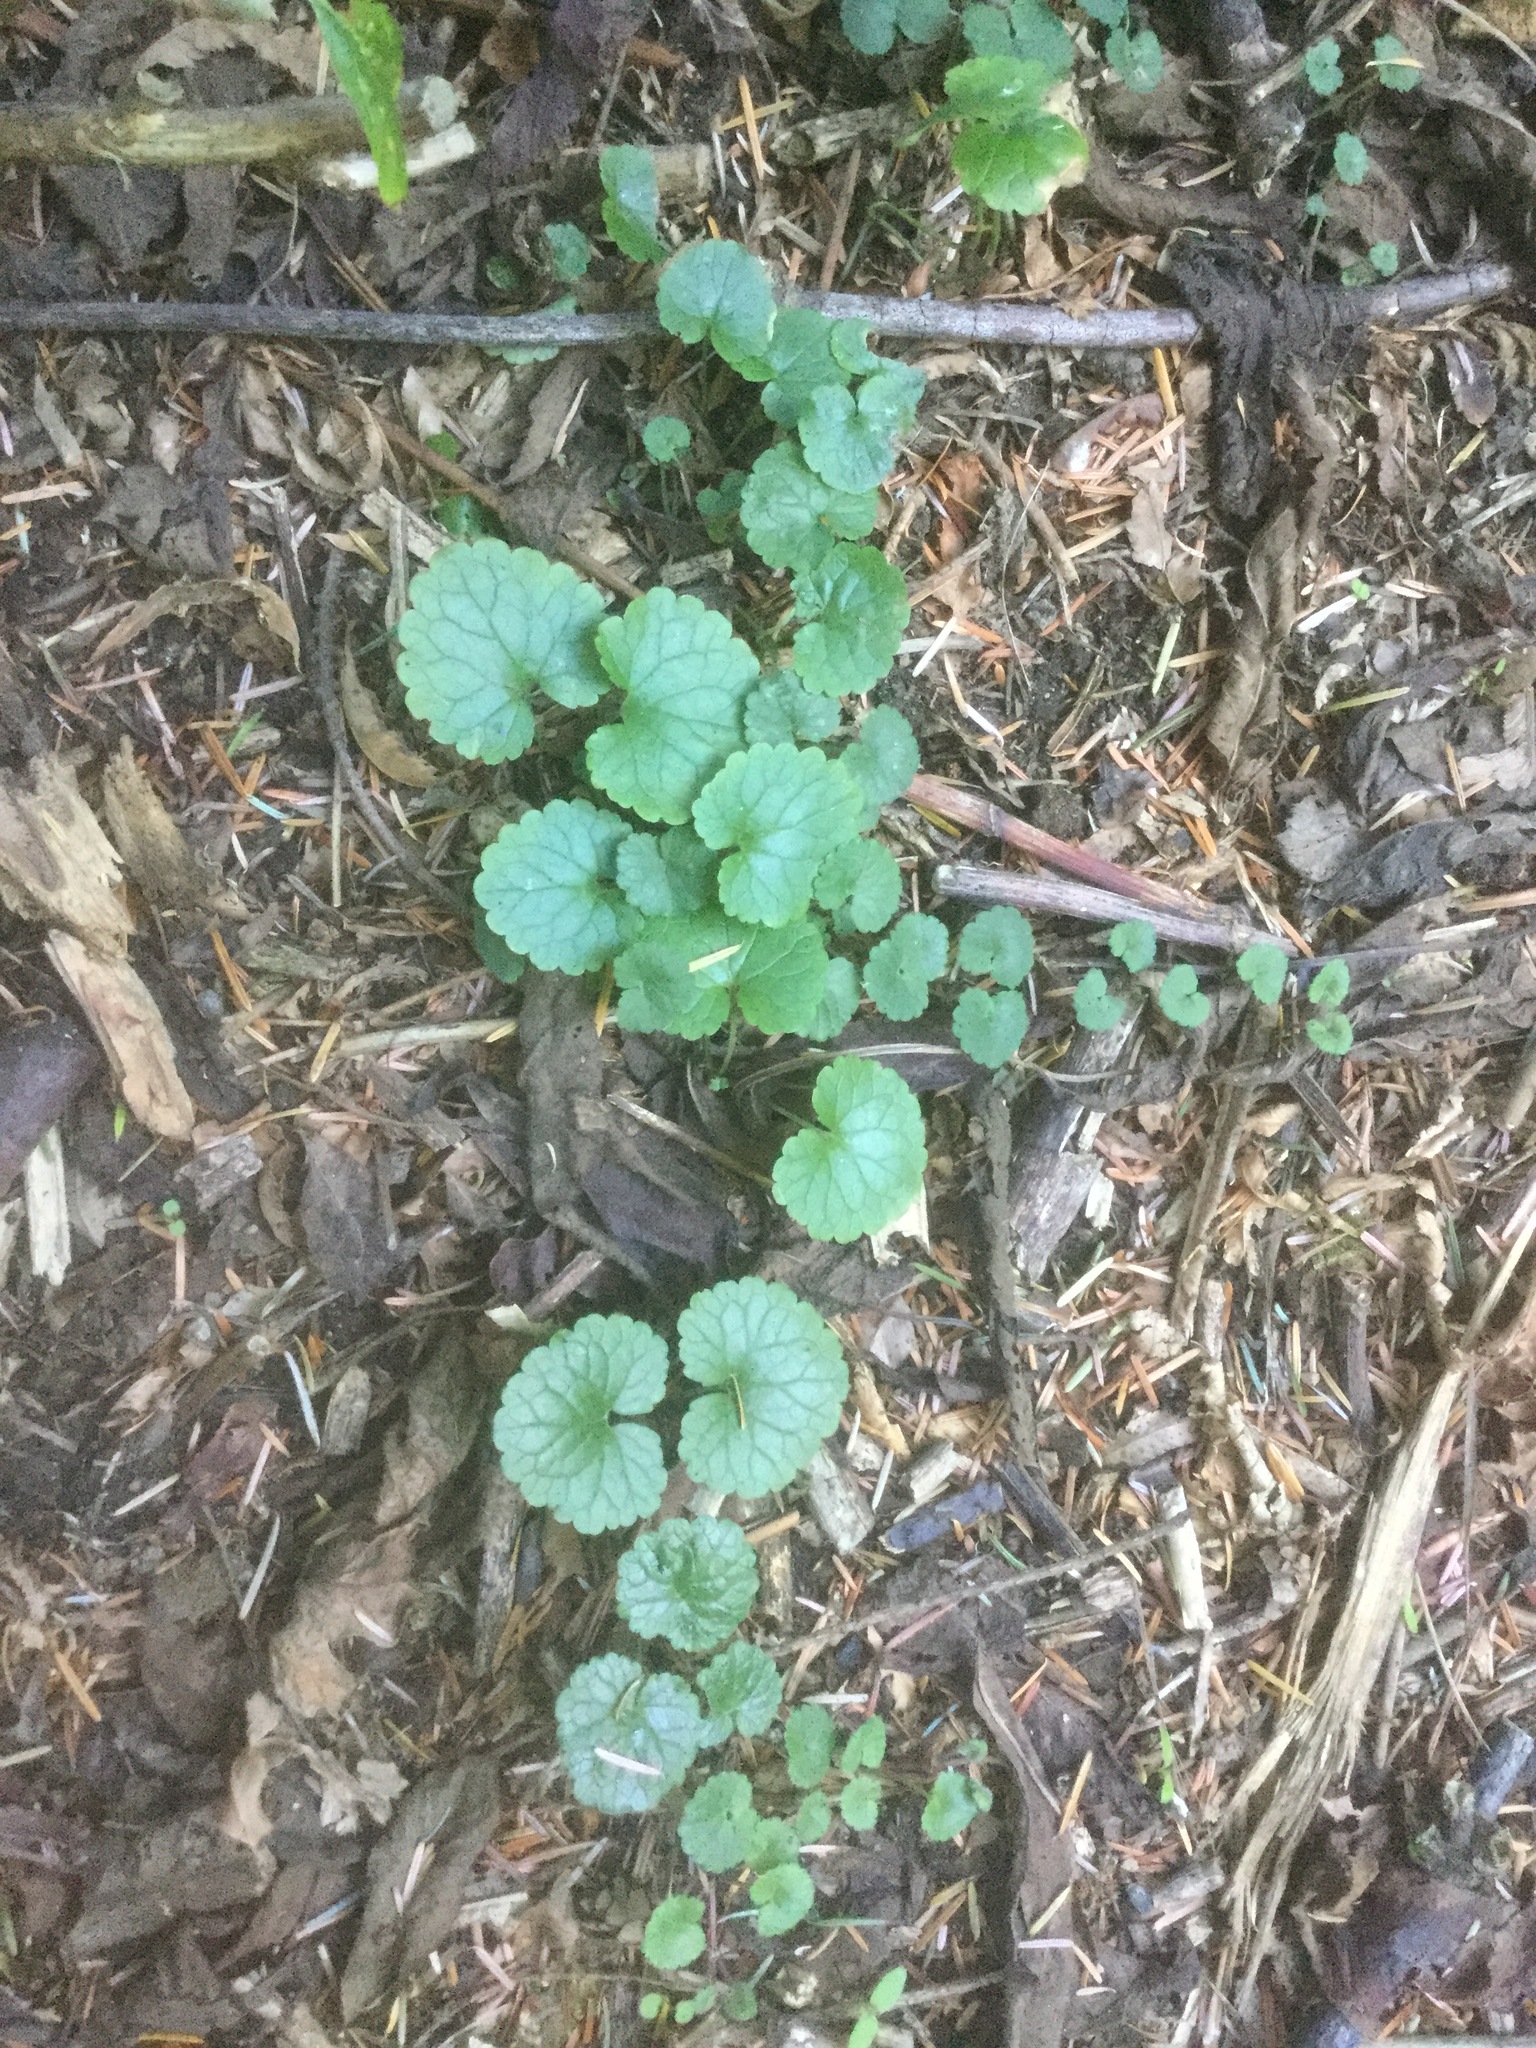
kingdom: Plantae
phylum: Tracheophyta
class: Magnoliopsida
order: Lamiales
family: Lamiaceae
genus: Glechoma
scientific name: Glechoma hederacea
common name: Ground ivy
